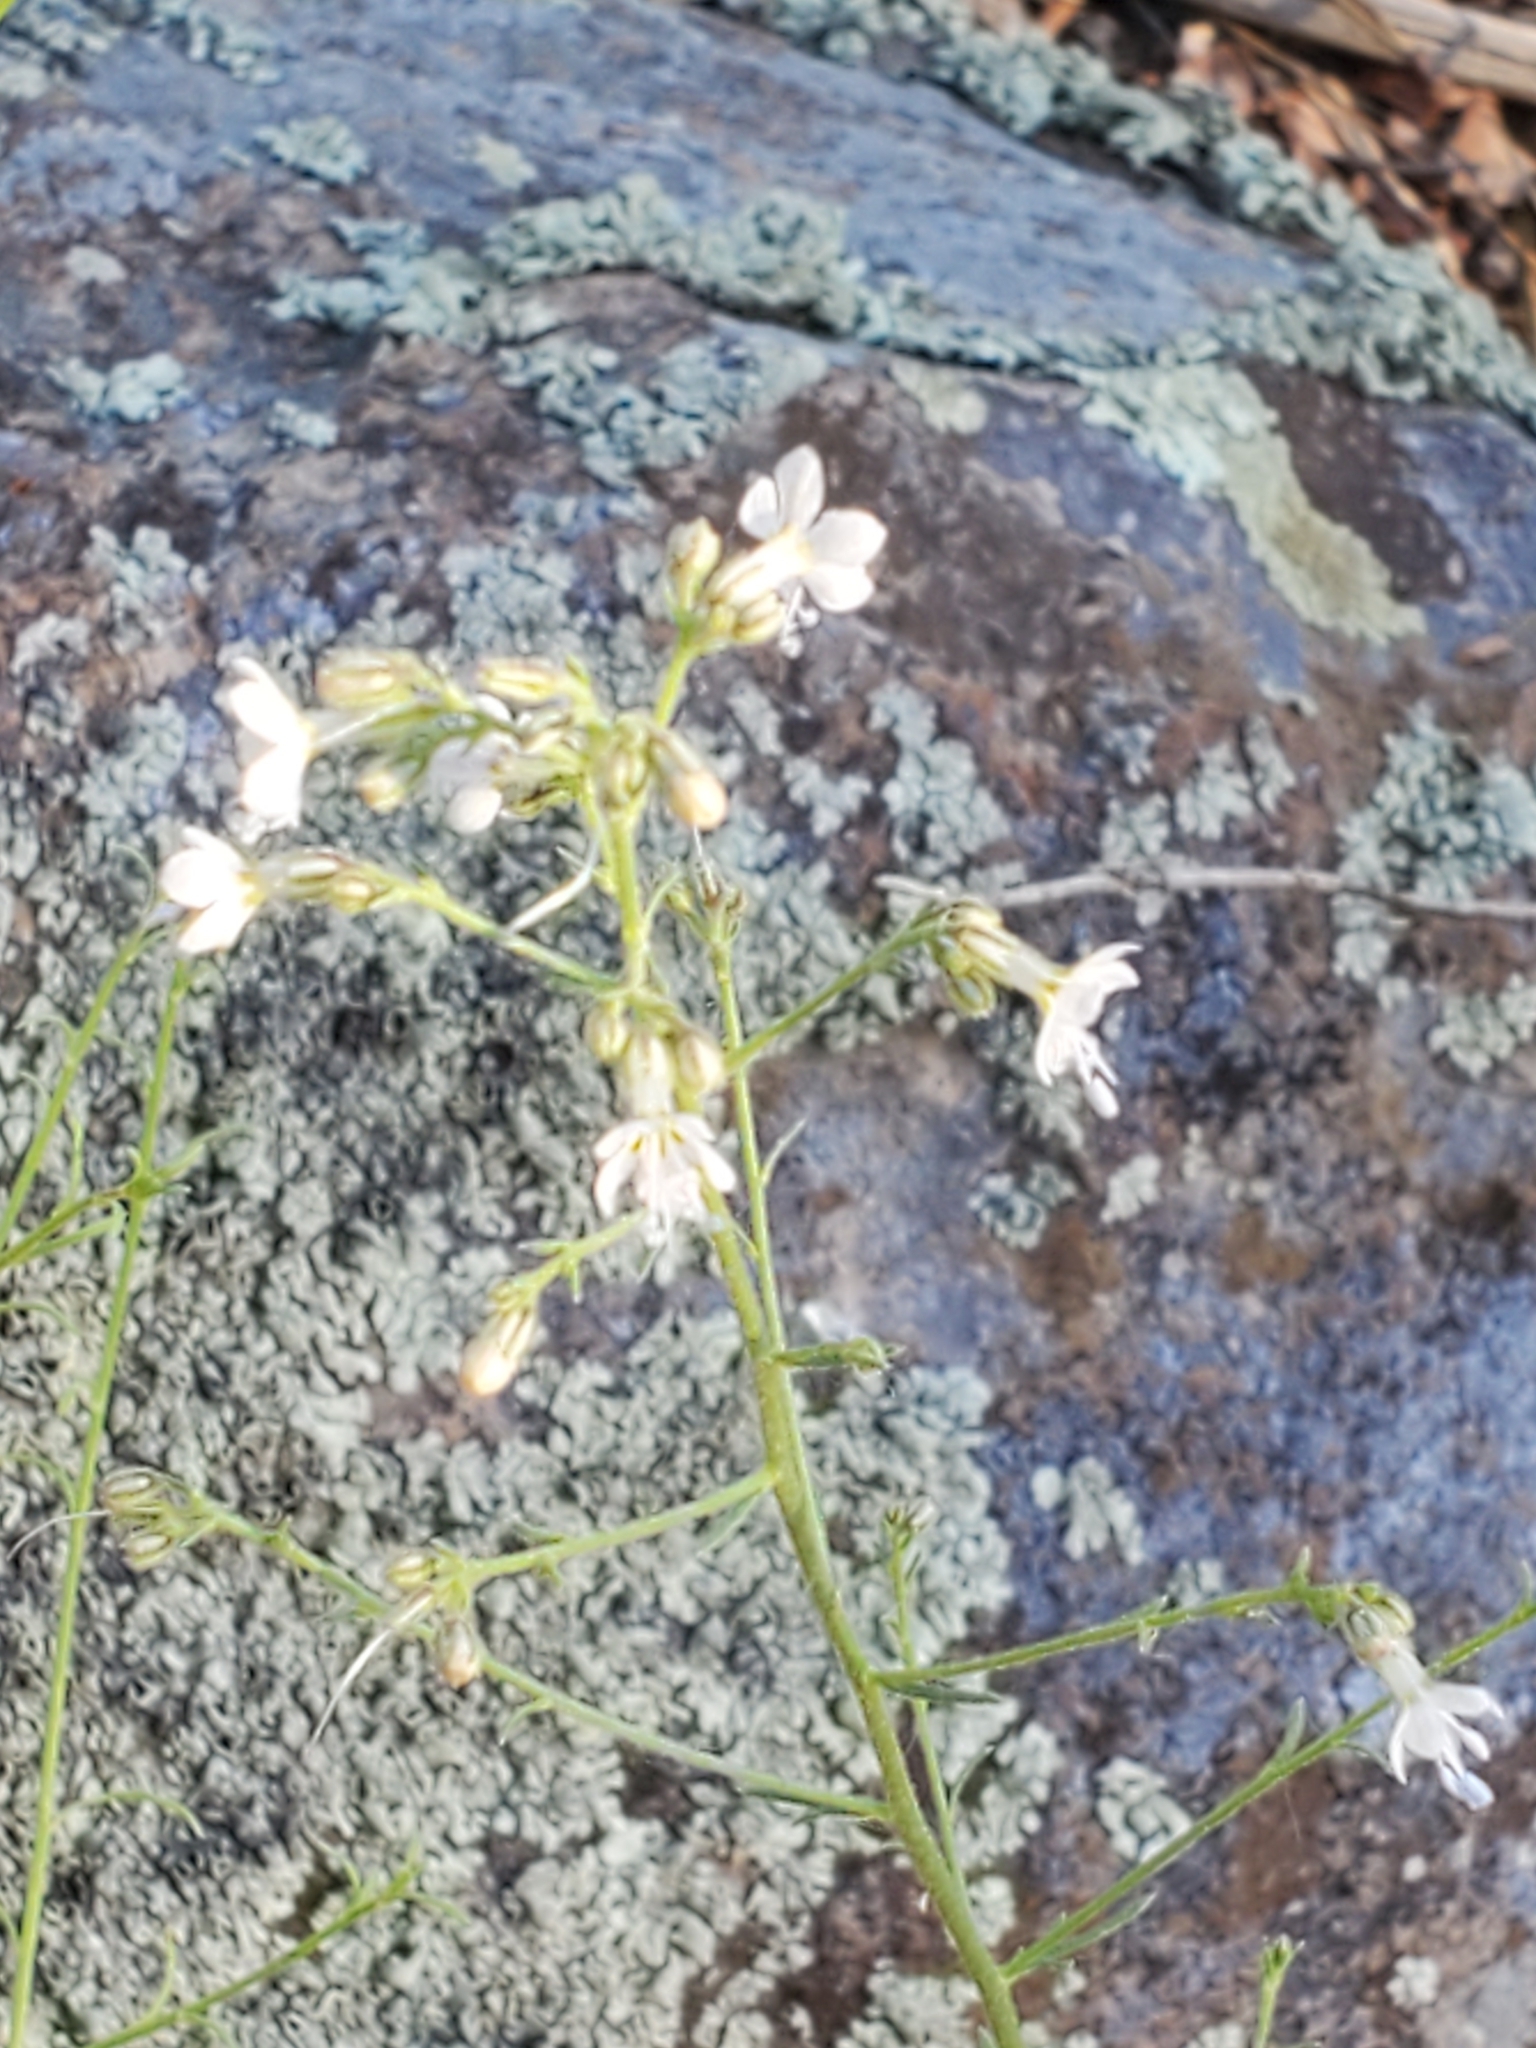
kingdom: Plantae
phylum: Tracheophyta
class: Magnoliopsida
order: Ericales
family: Polemoniaceae
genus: Aliciella
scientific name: Aliciella pinnatifida
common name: Sticky gilia
